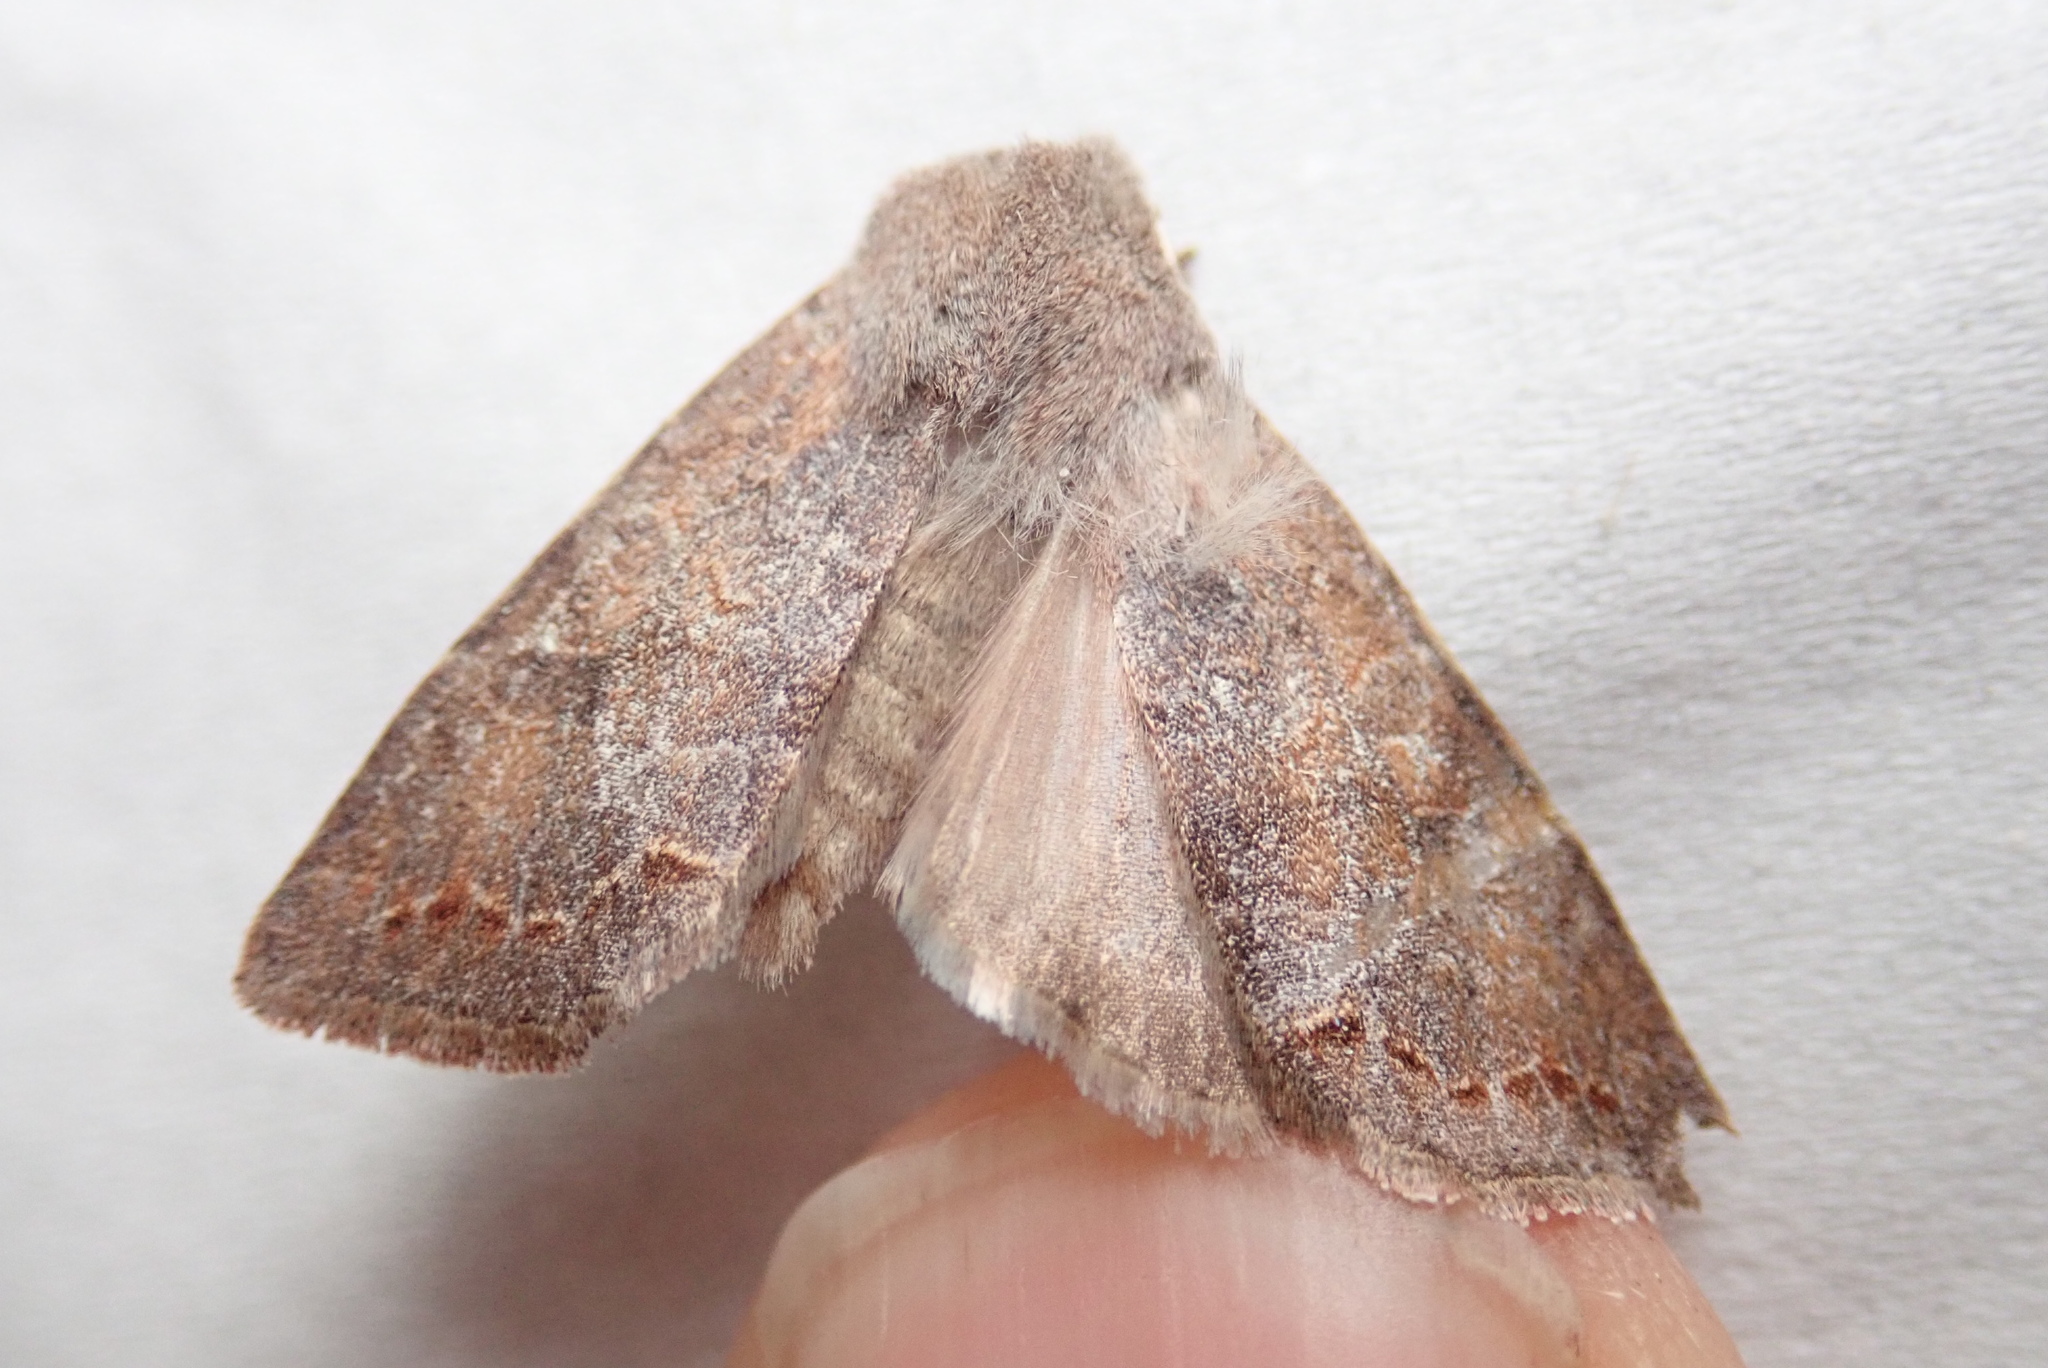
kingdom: Animalia
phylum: Arthropoda
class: Insecta
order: Lepidoptera
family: Noctuidae
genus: Orthosia
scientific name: Orthosia revicta
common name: Rusty whitesided caterpillar
